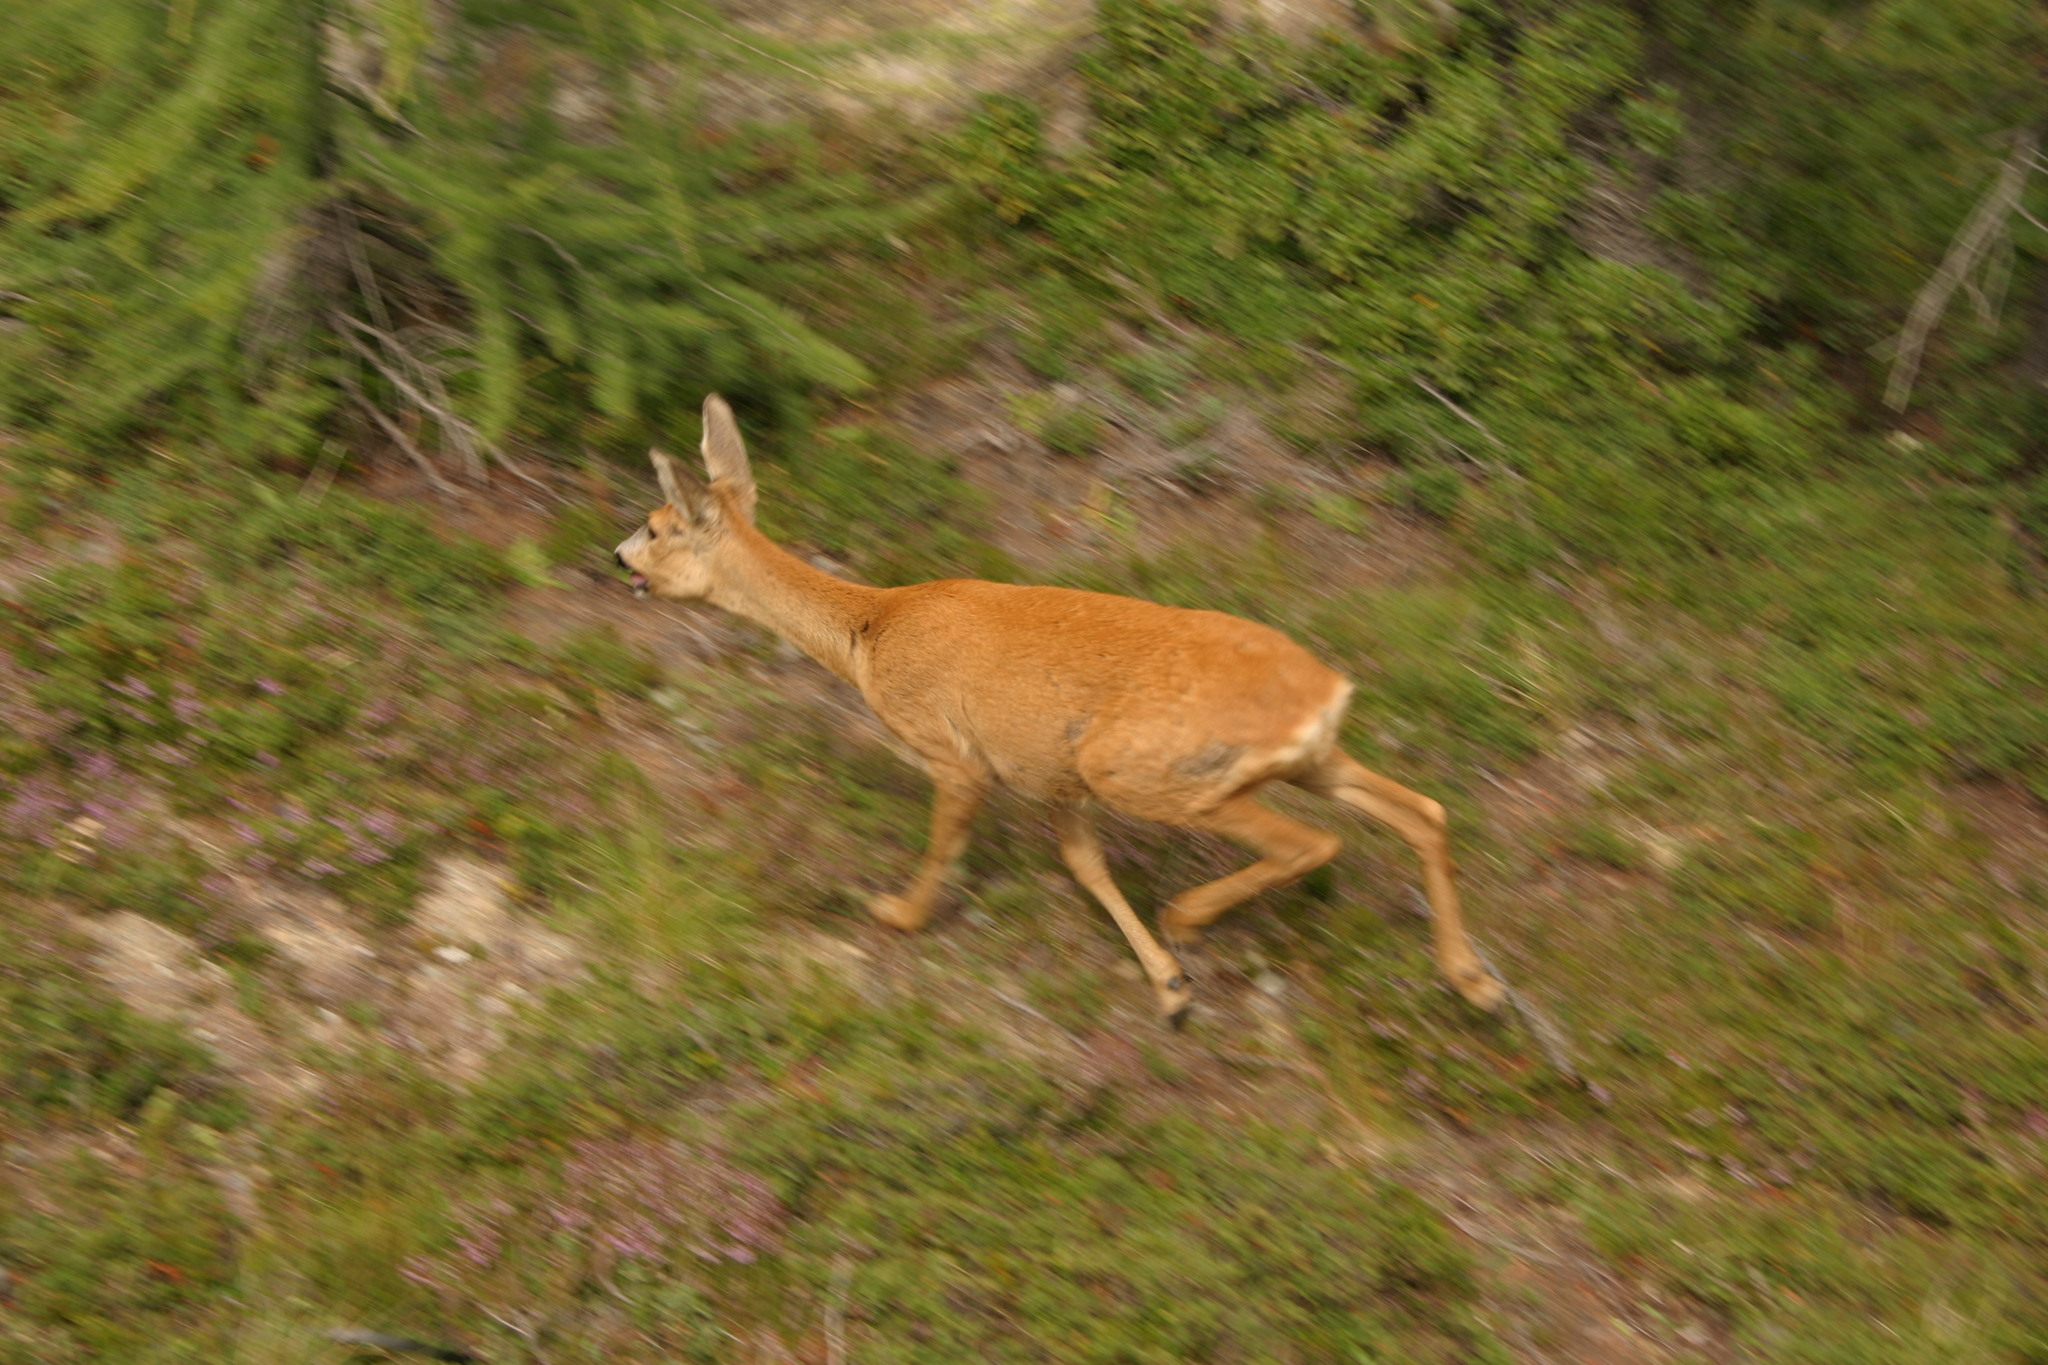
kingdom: Animalia
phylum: Chordata
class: Mammalia
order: Artiodactyla
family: Cervidae
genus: Capreolus
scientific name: Capreolus capreolus
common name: Western roe deer
